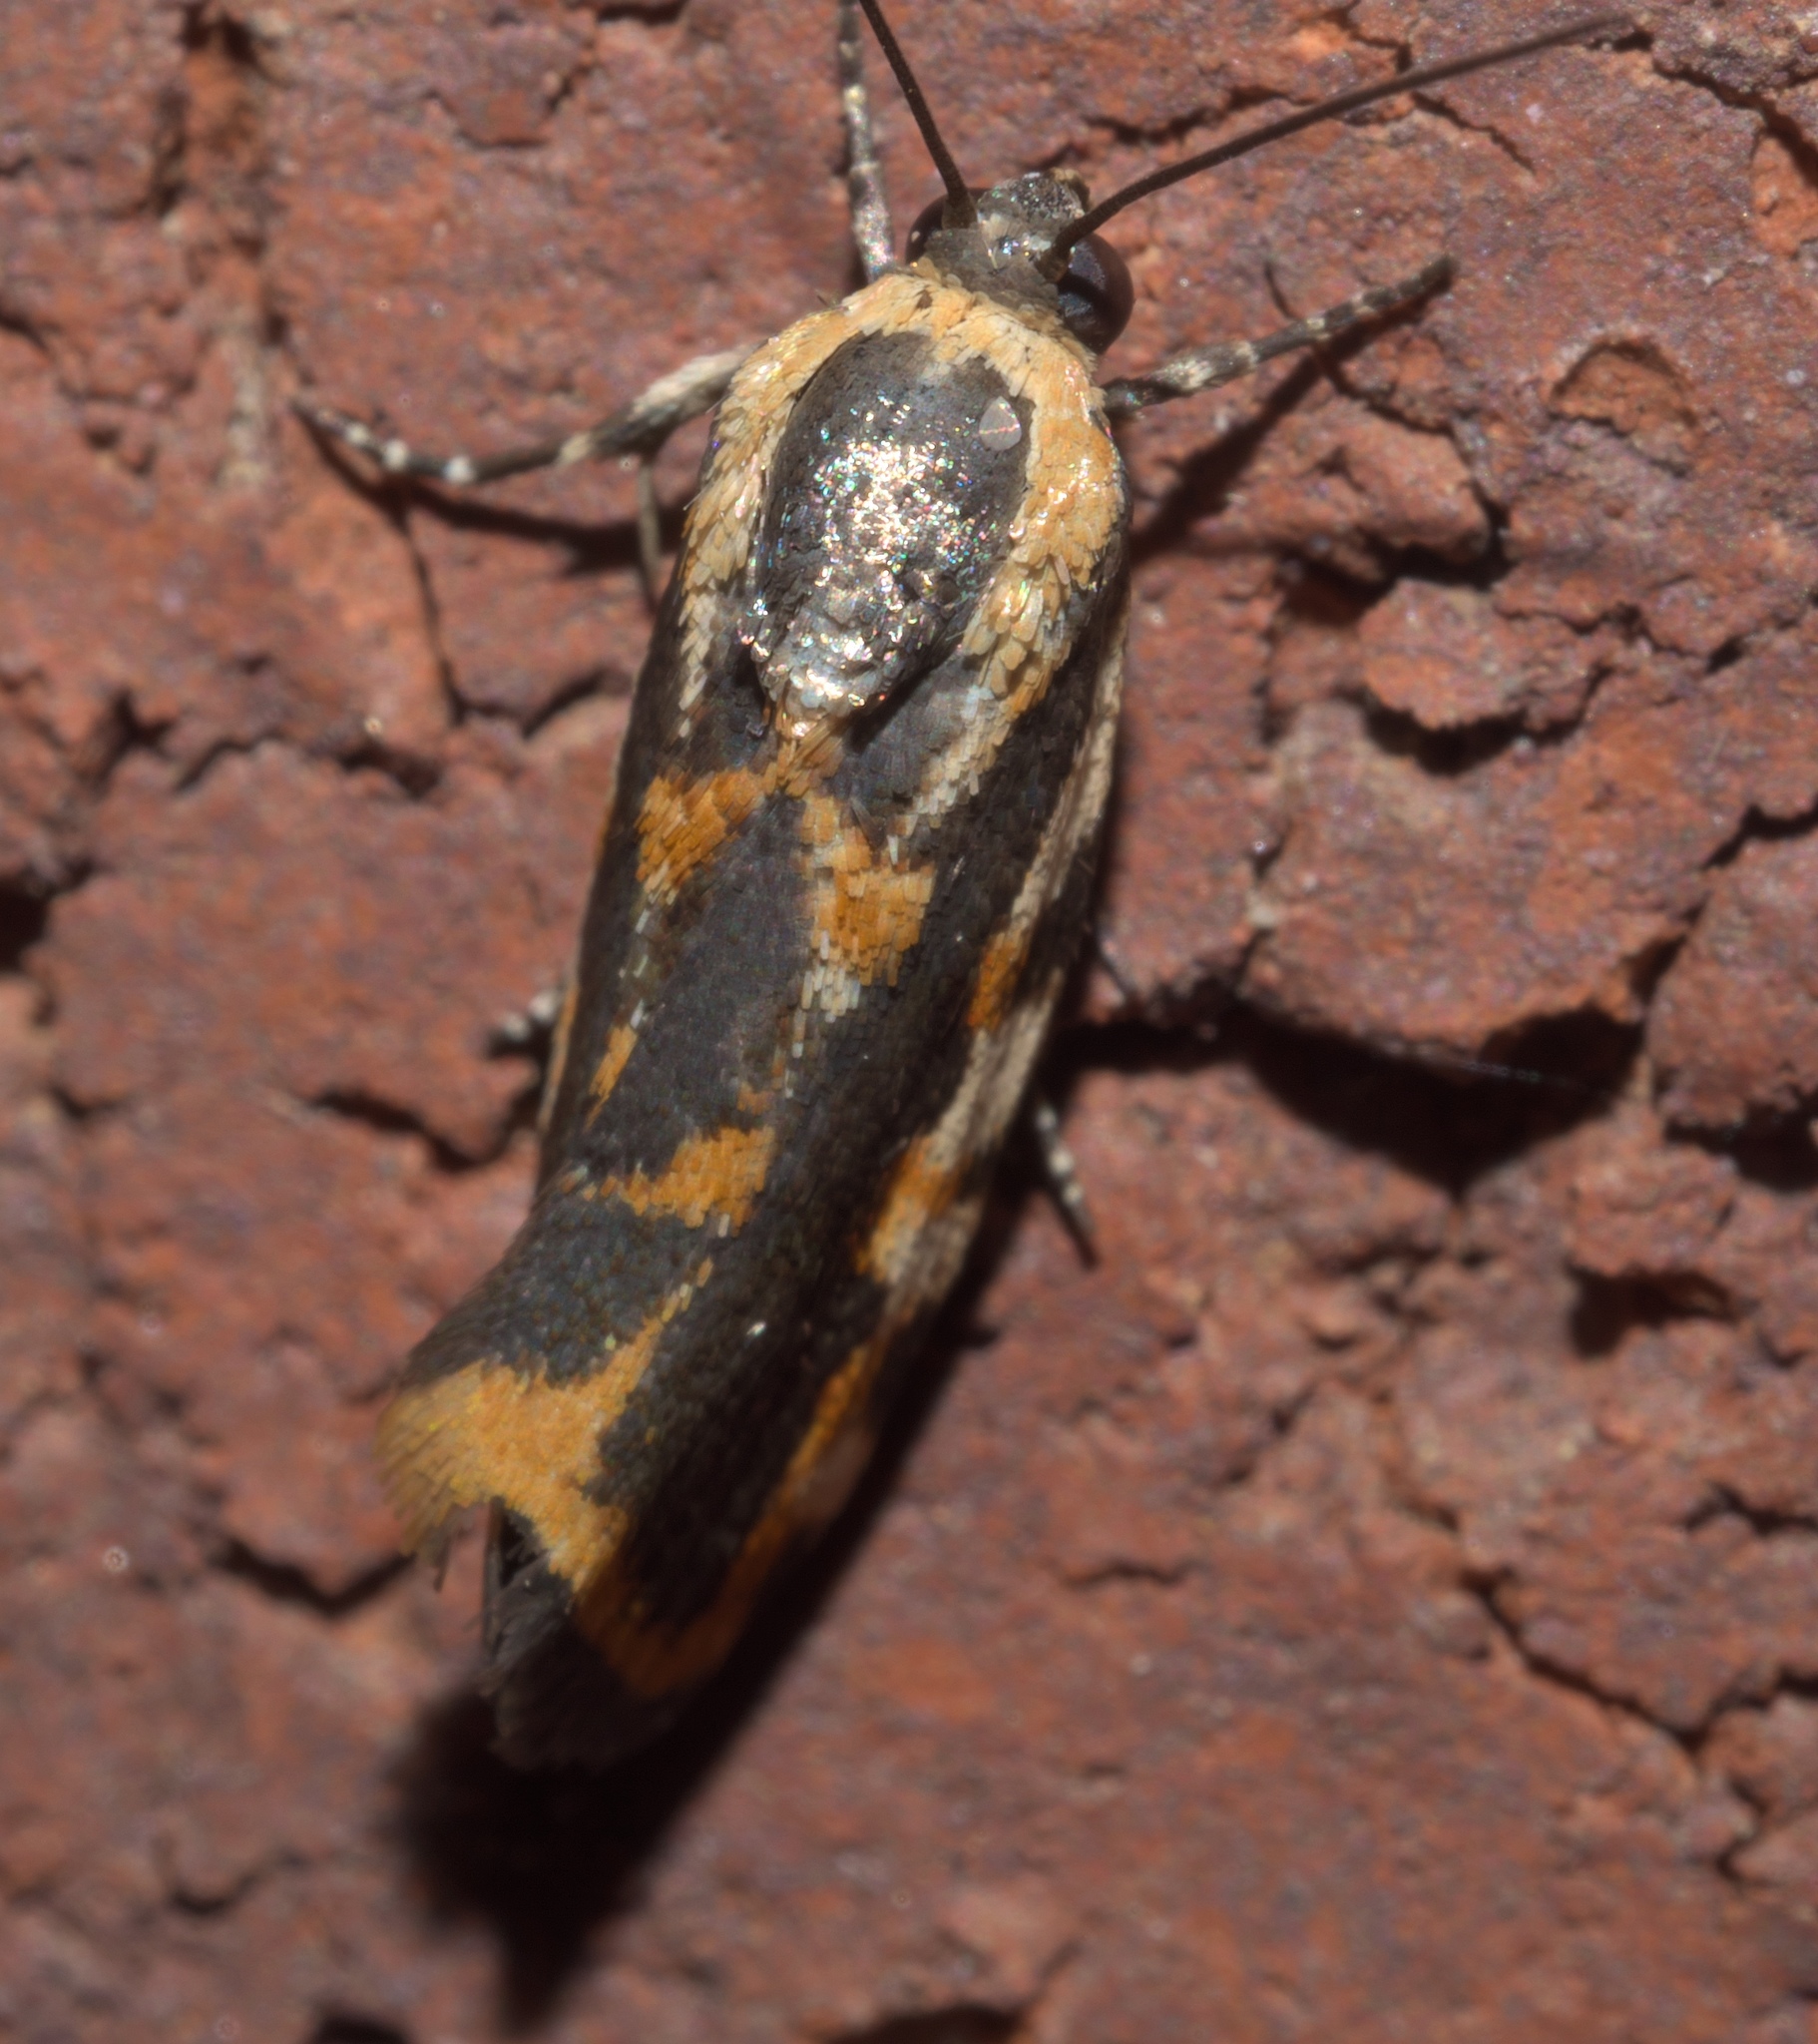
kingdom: Animalia
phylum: Arthropoda
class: Insecta
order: Lepidoptera
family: Noctuidae
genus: Acontia
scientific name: Acontia leo
